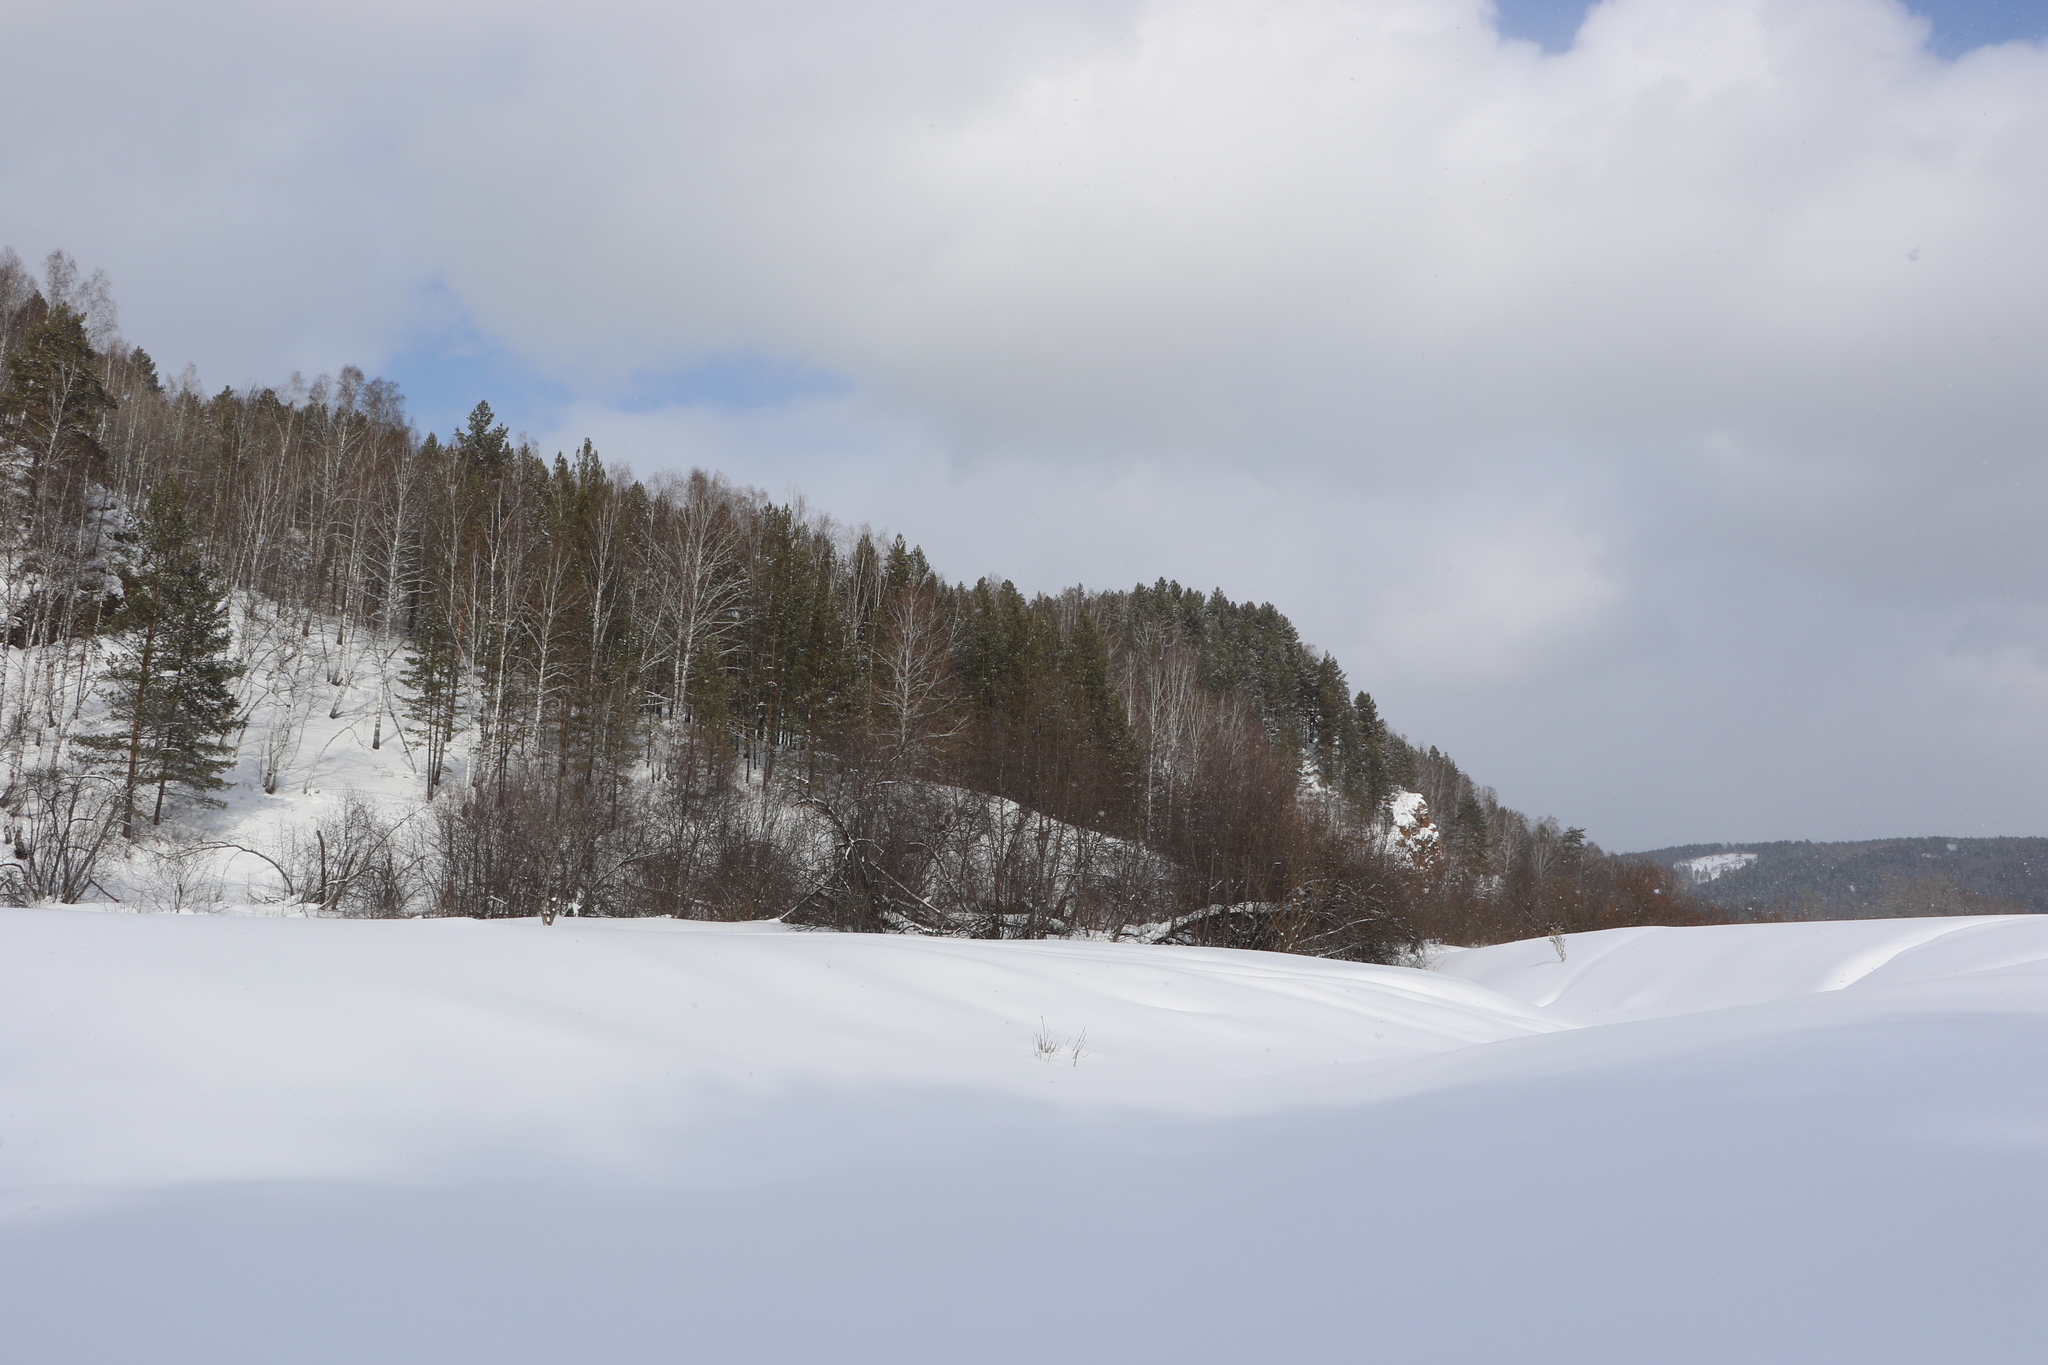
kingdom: Plantae
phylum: Tracheophyta
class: Pinopsida
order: Pinales
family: Pinaceae
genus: Pinus
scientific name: Pinus sylvestris
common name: Scots pine
